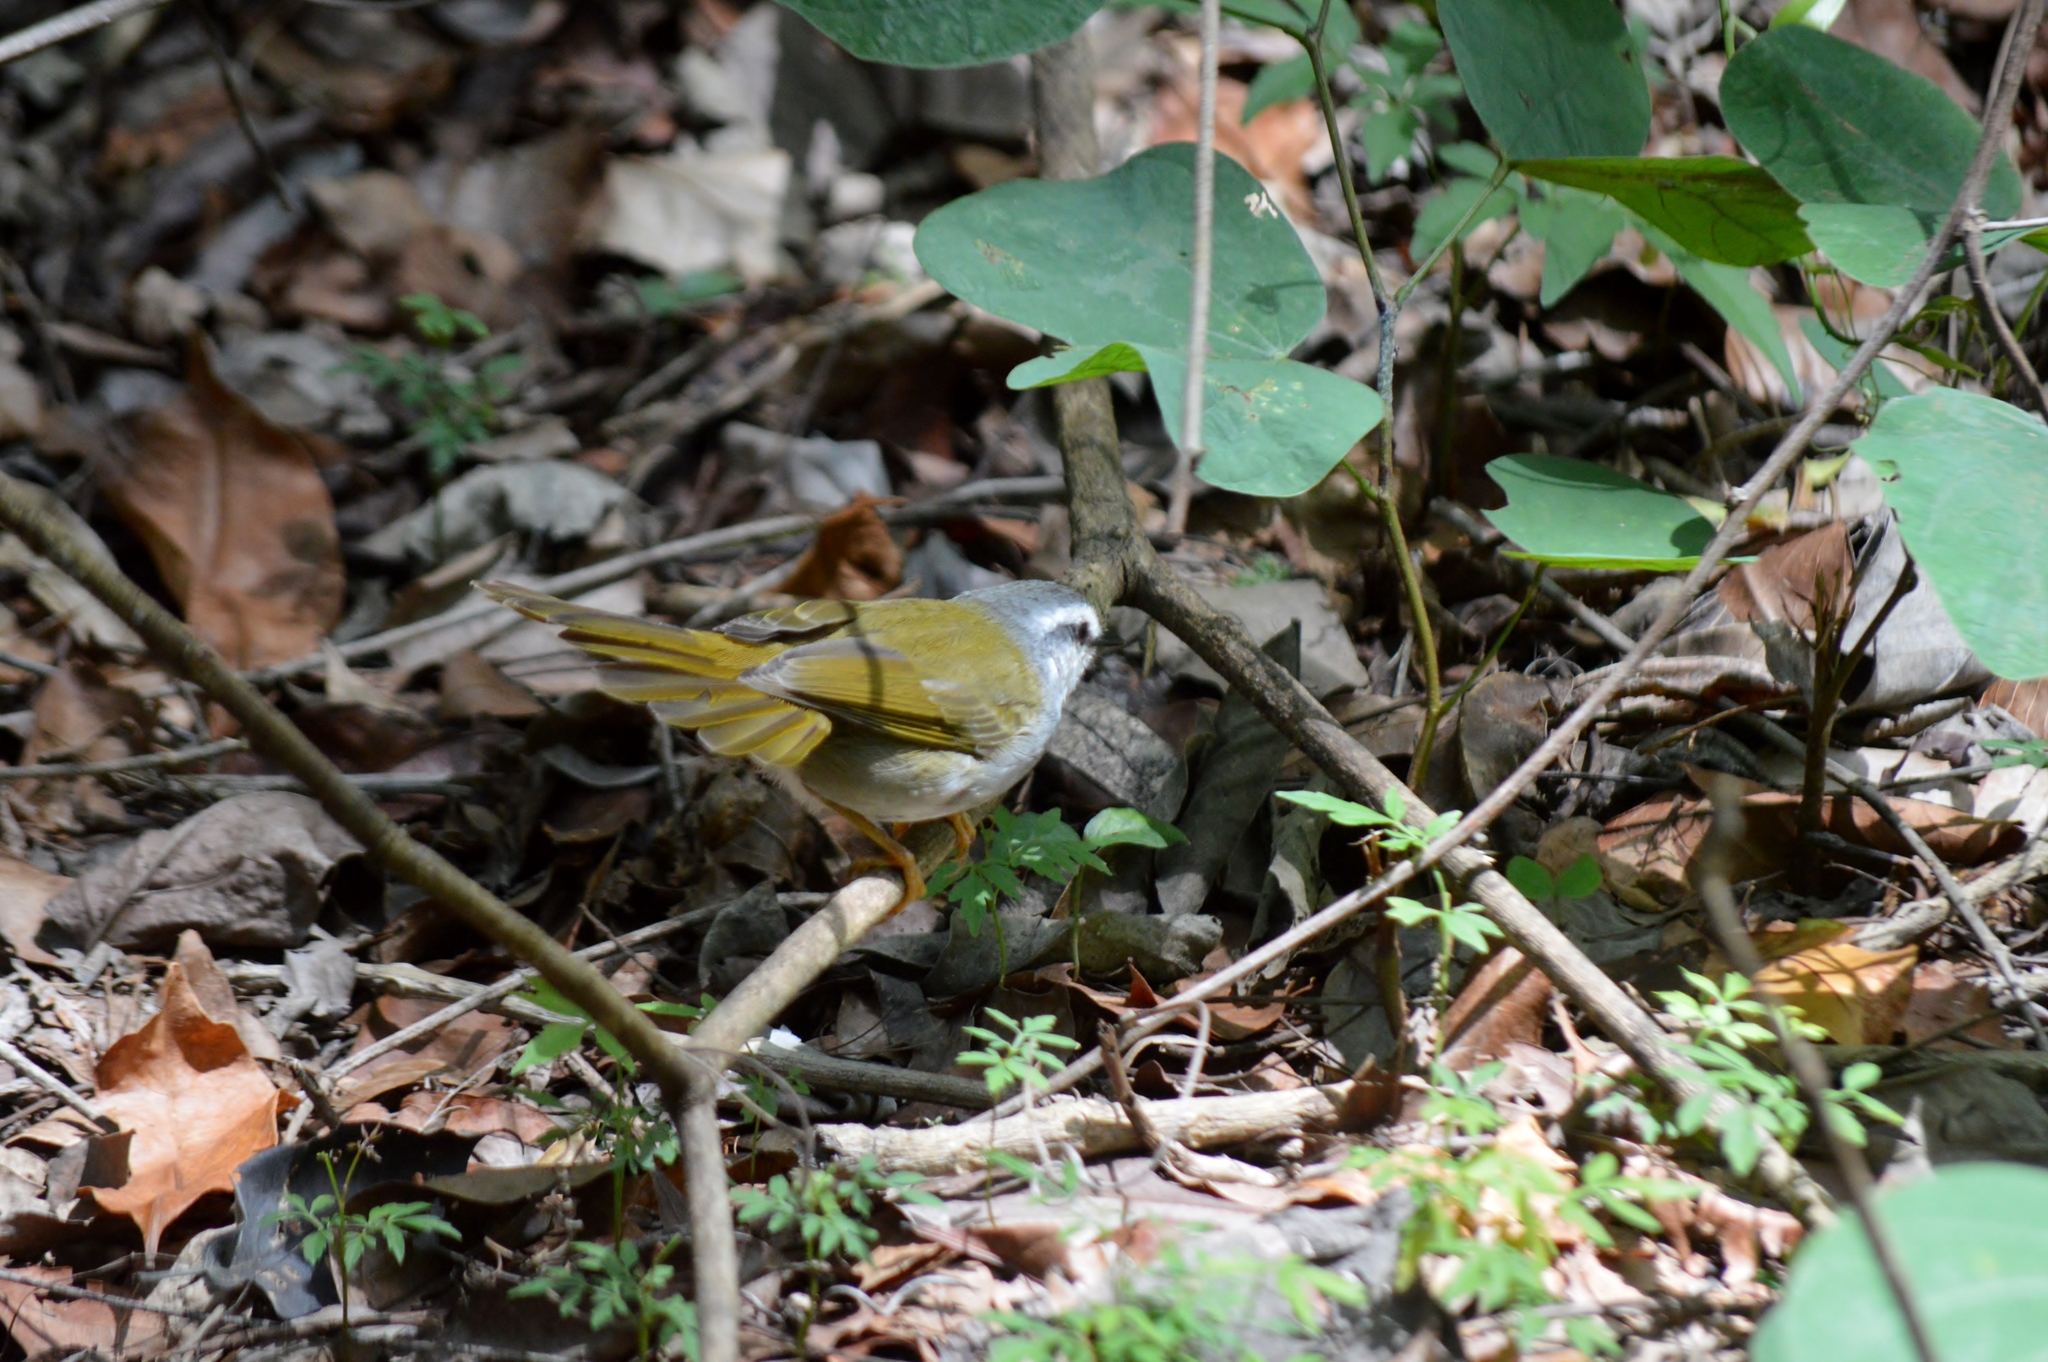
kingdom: Animalia
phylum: Chordata
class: Aves
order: Passeriformes
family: Parulidae
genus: Myiothlypis
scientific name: Myiothlypis leucophrys
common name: White-striped warbler
